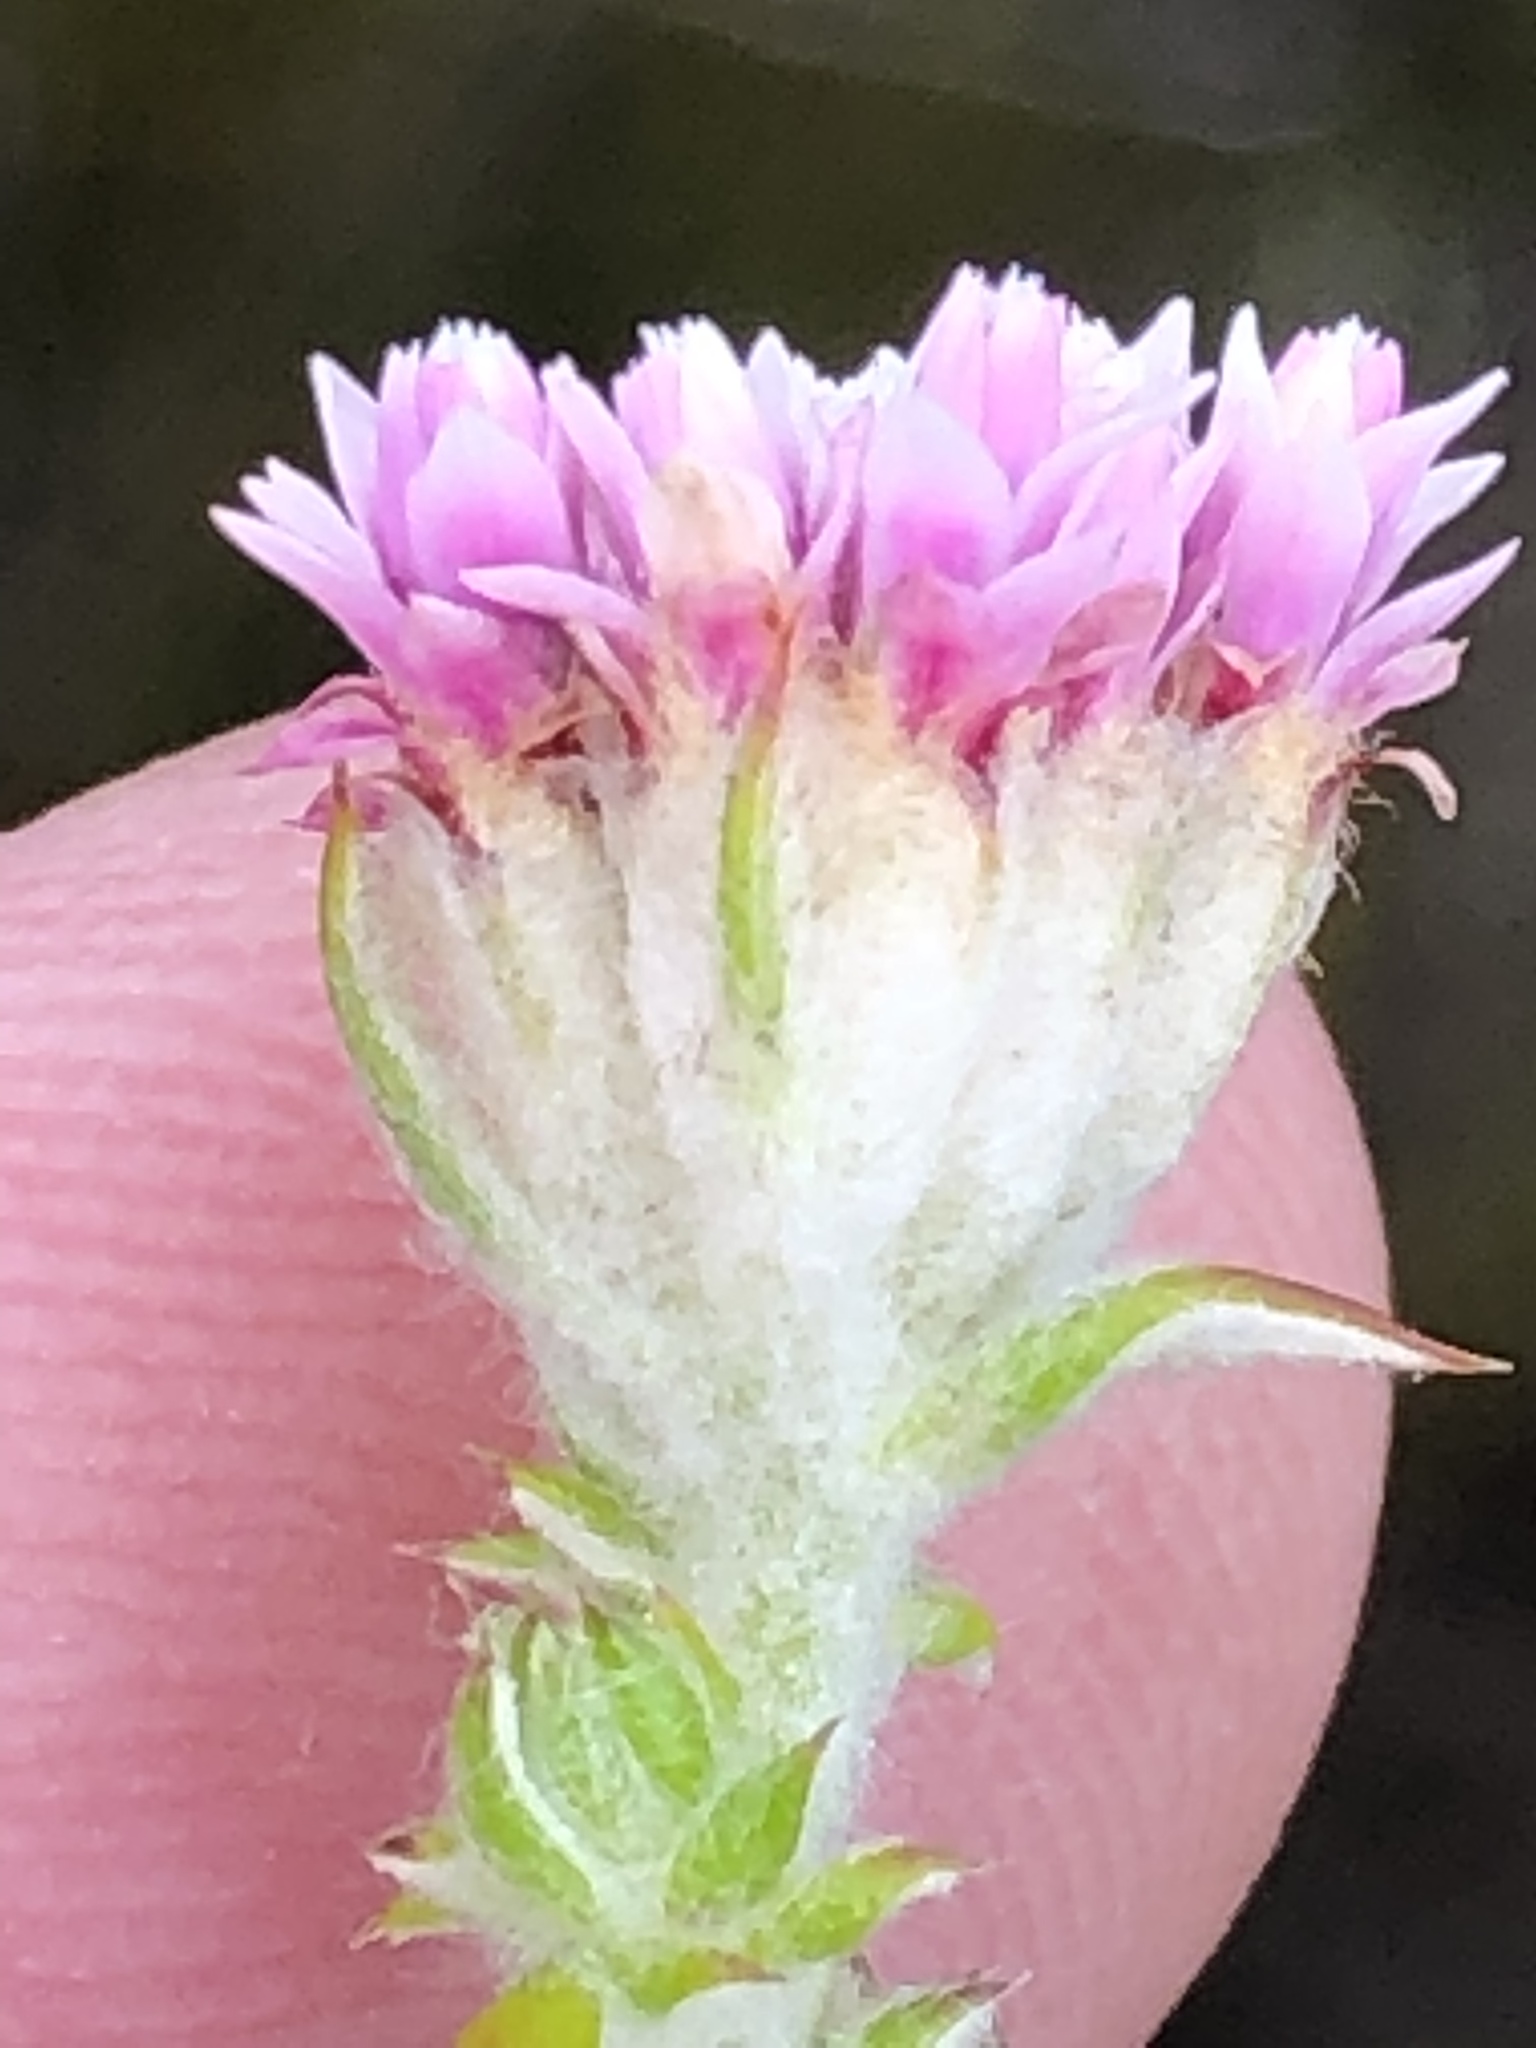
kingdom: Plantae
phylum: Tracheophyta
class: Magnoliopsida
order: Asterales
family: Asteraceae
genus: Metalasia
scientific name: Metalasia lichtensteinii
